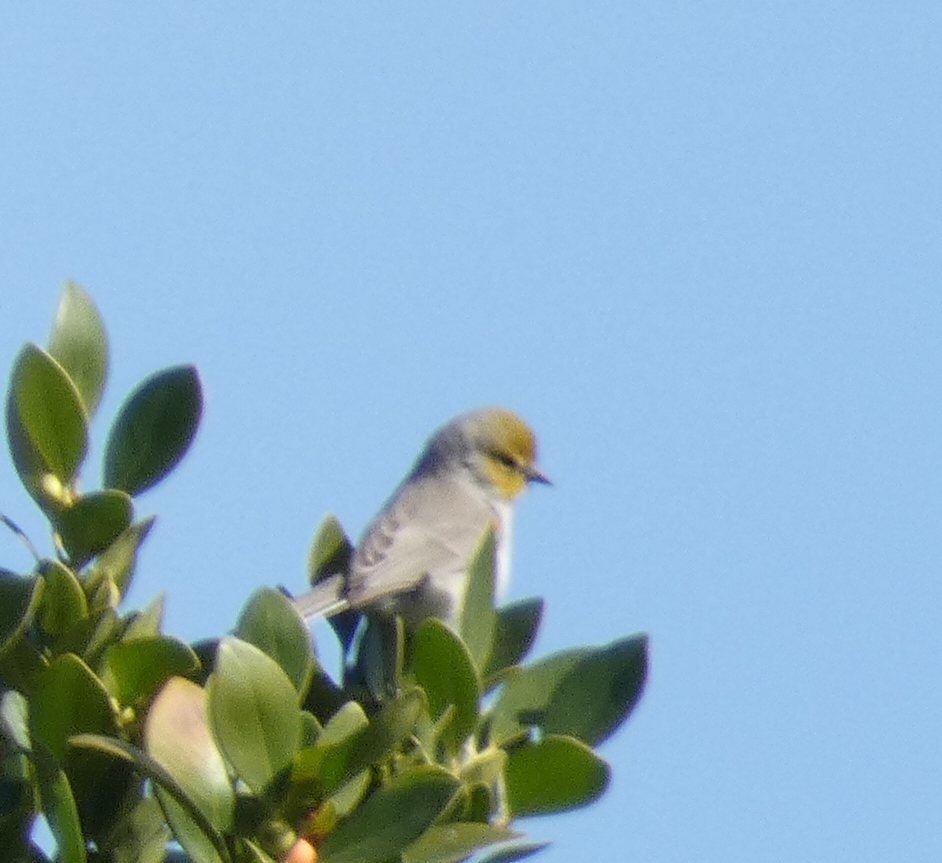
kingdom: Animalia
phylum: Chordata
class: Aves
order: Passeriformes
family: Remizidae
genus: Auriparus
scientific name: Auriparus flaviceps
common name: Verdin
